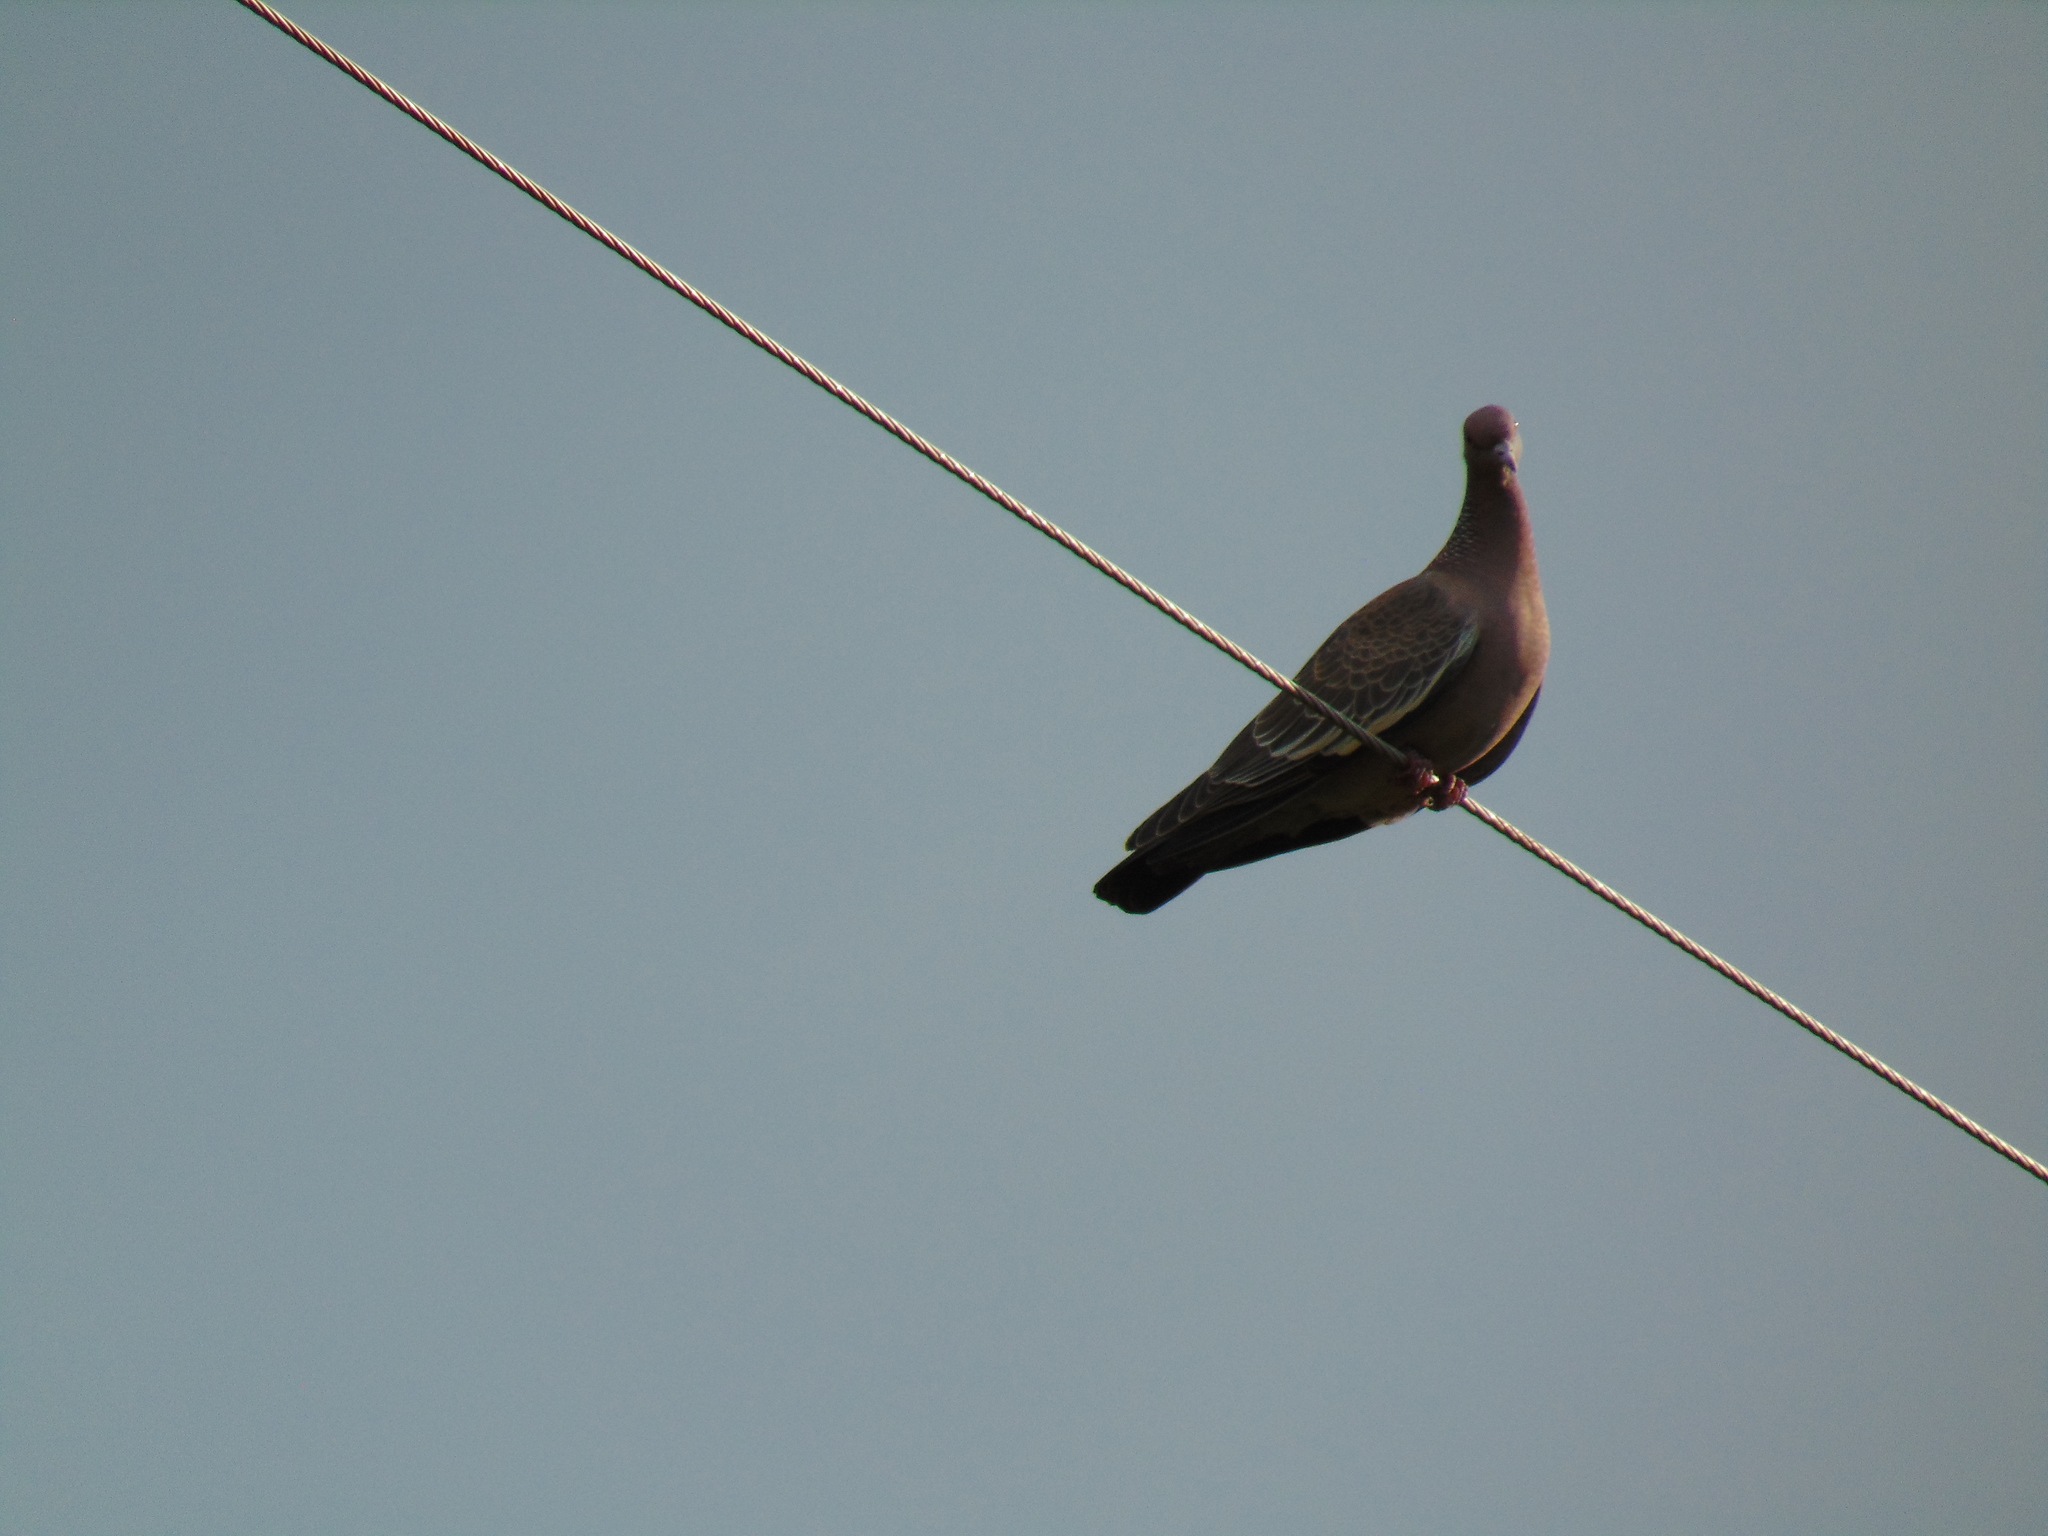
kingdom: Animalia
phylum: Chordata
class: Aves
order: Columbiformes
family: Columbidae
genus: Patagioenas
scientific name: Patagioenas picazuro
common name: Picazuro pigeon
